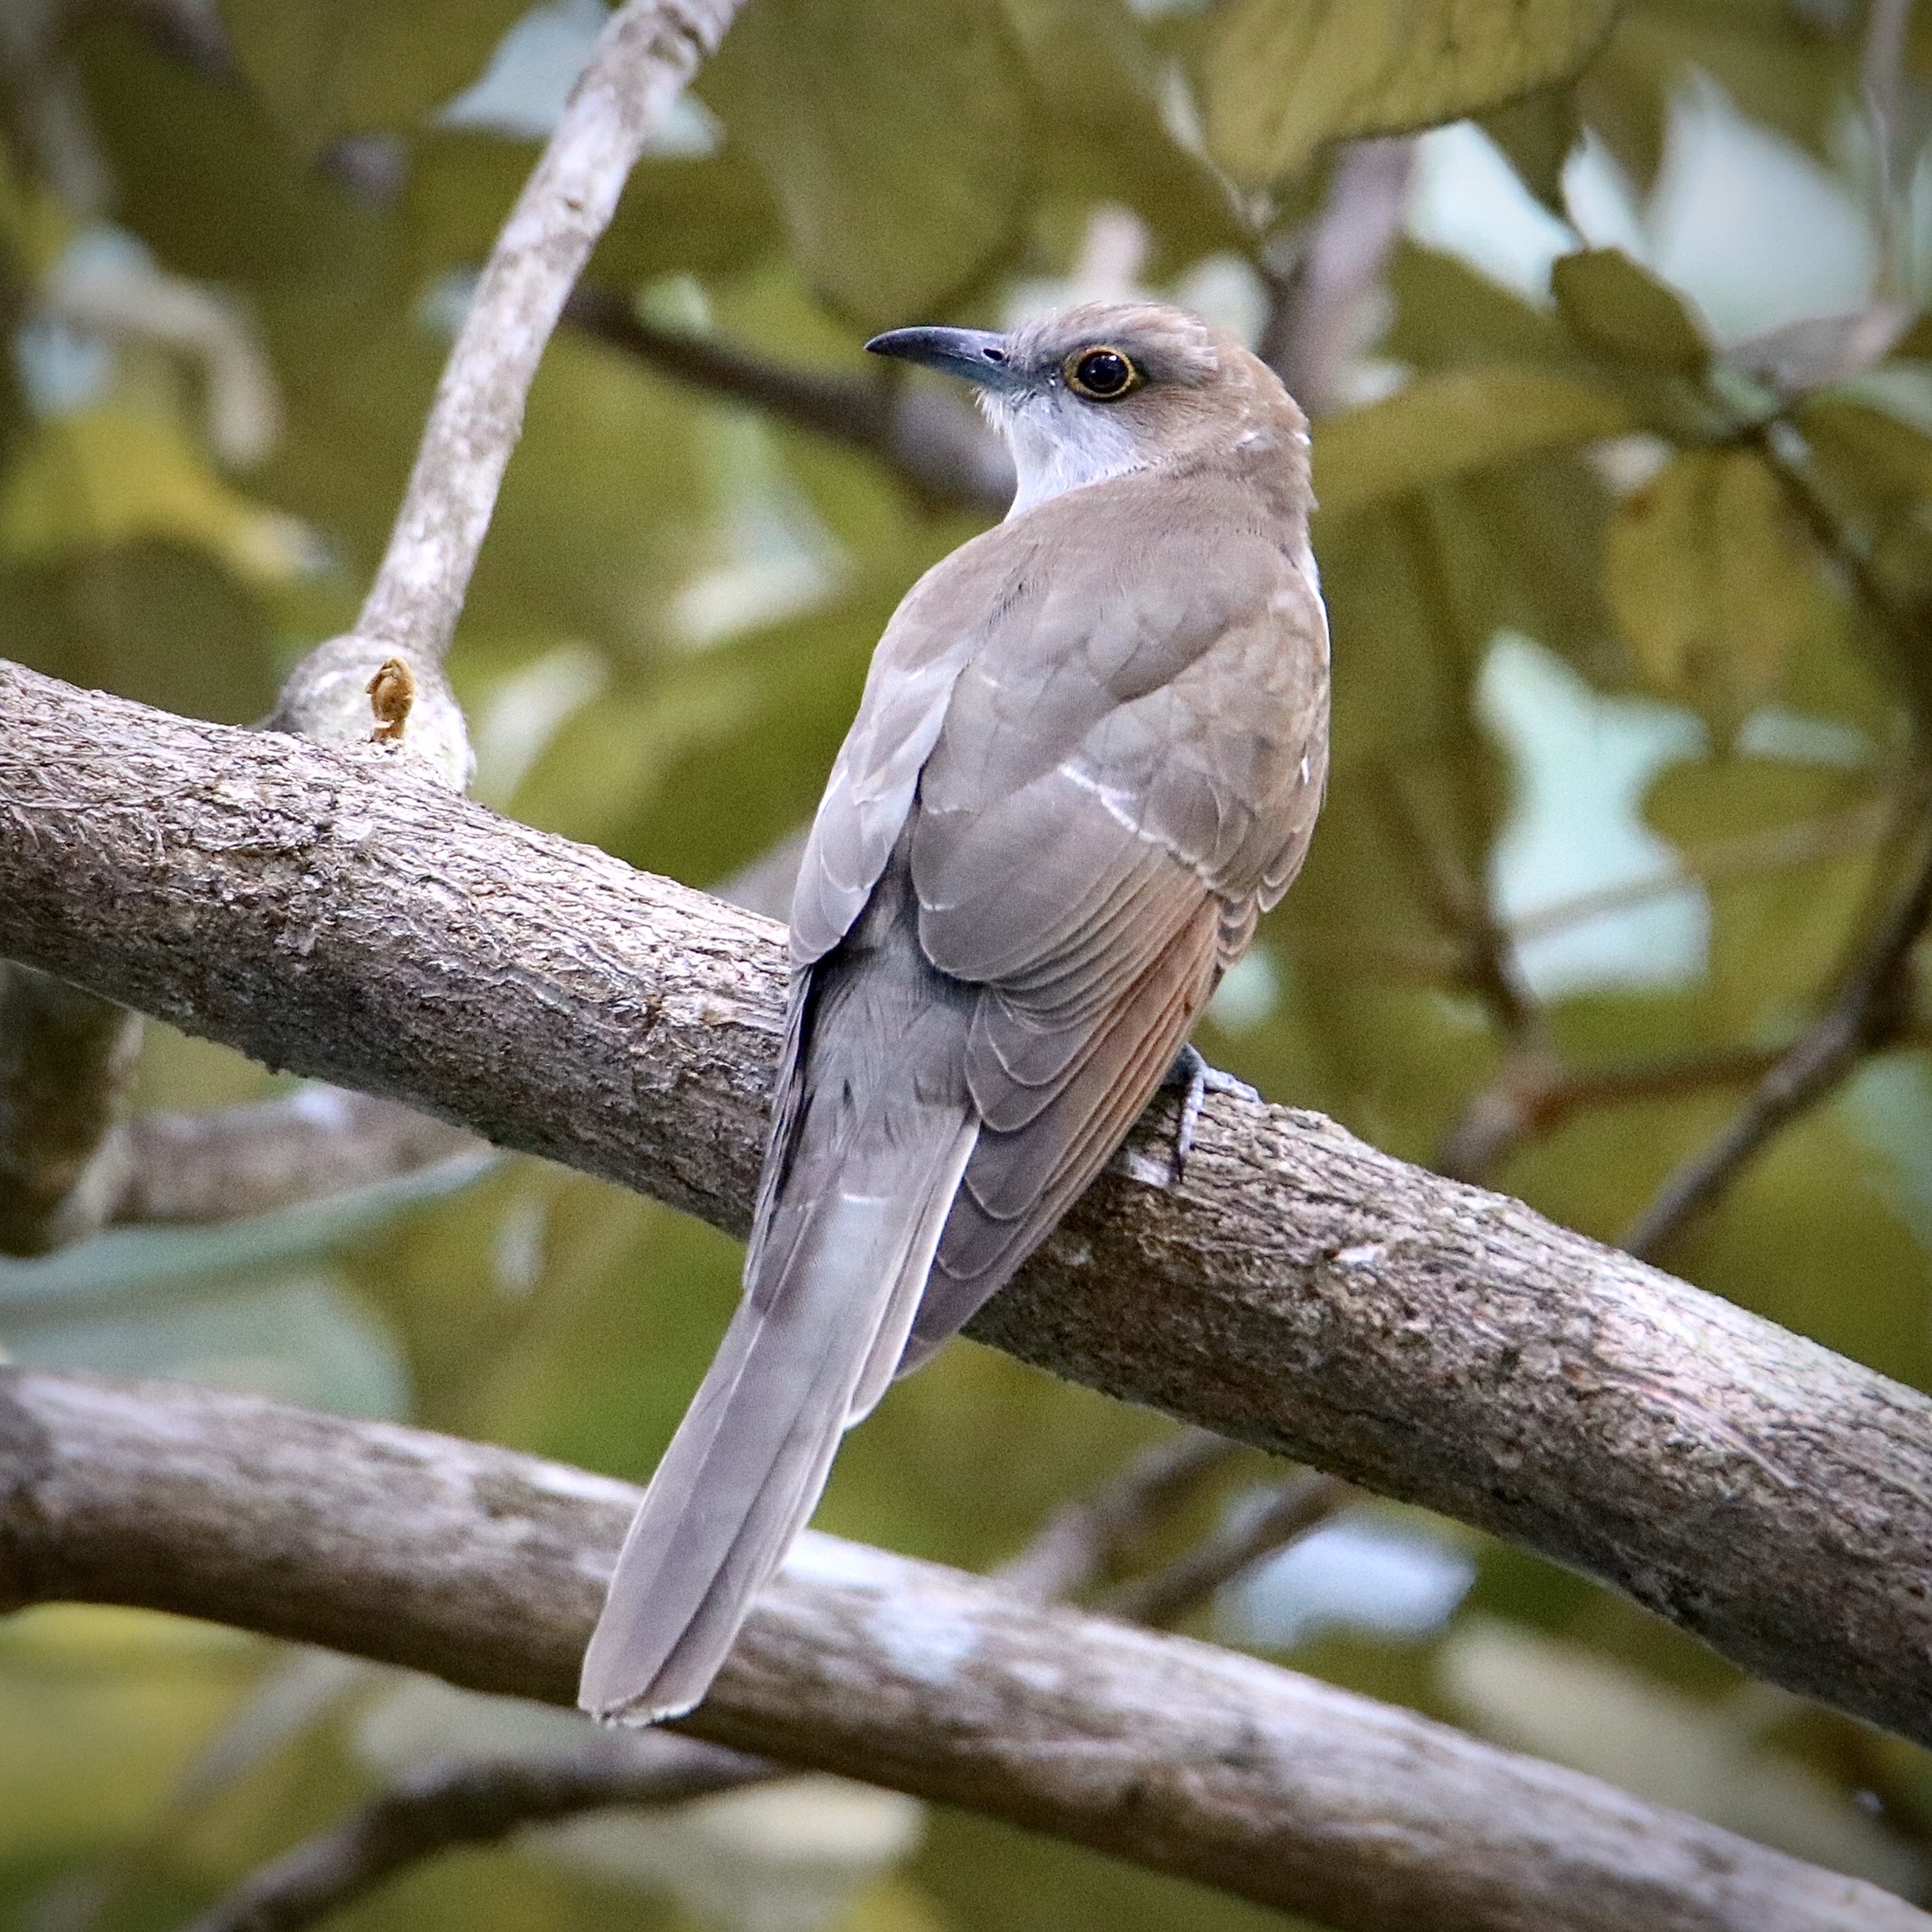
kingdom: Animalia
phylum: Chordata
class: Aves
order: Cuculiformes
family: Cuculidae
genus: Coccyzus
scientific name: Coccyzus erythropthalmus
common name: Black-billed cuckoo
